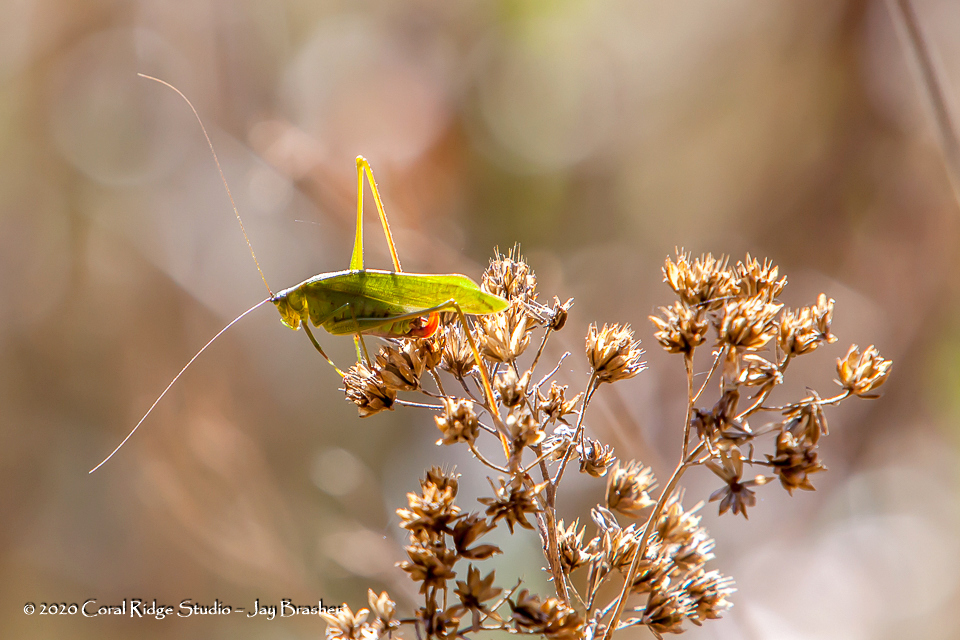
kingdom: Animalia
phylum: Arthropoda
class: Insecta
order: Orthoptera
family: Tettigoniidae
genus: Scudderia
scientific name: Scudderia furcata
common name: Fork-tailed bush katydid
